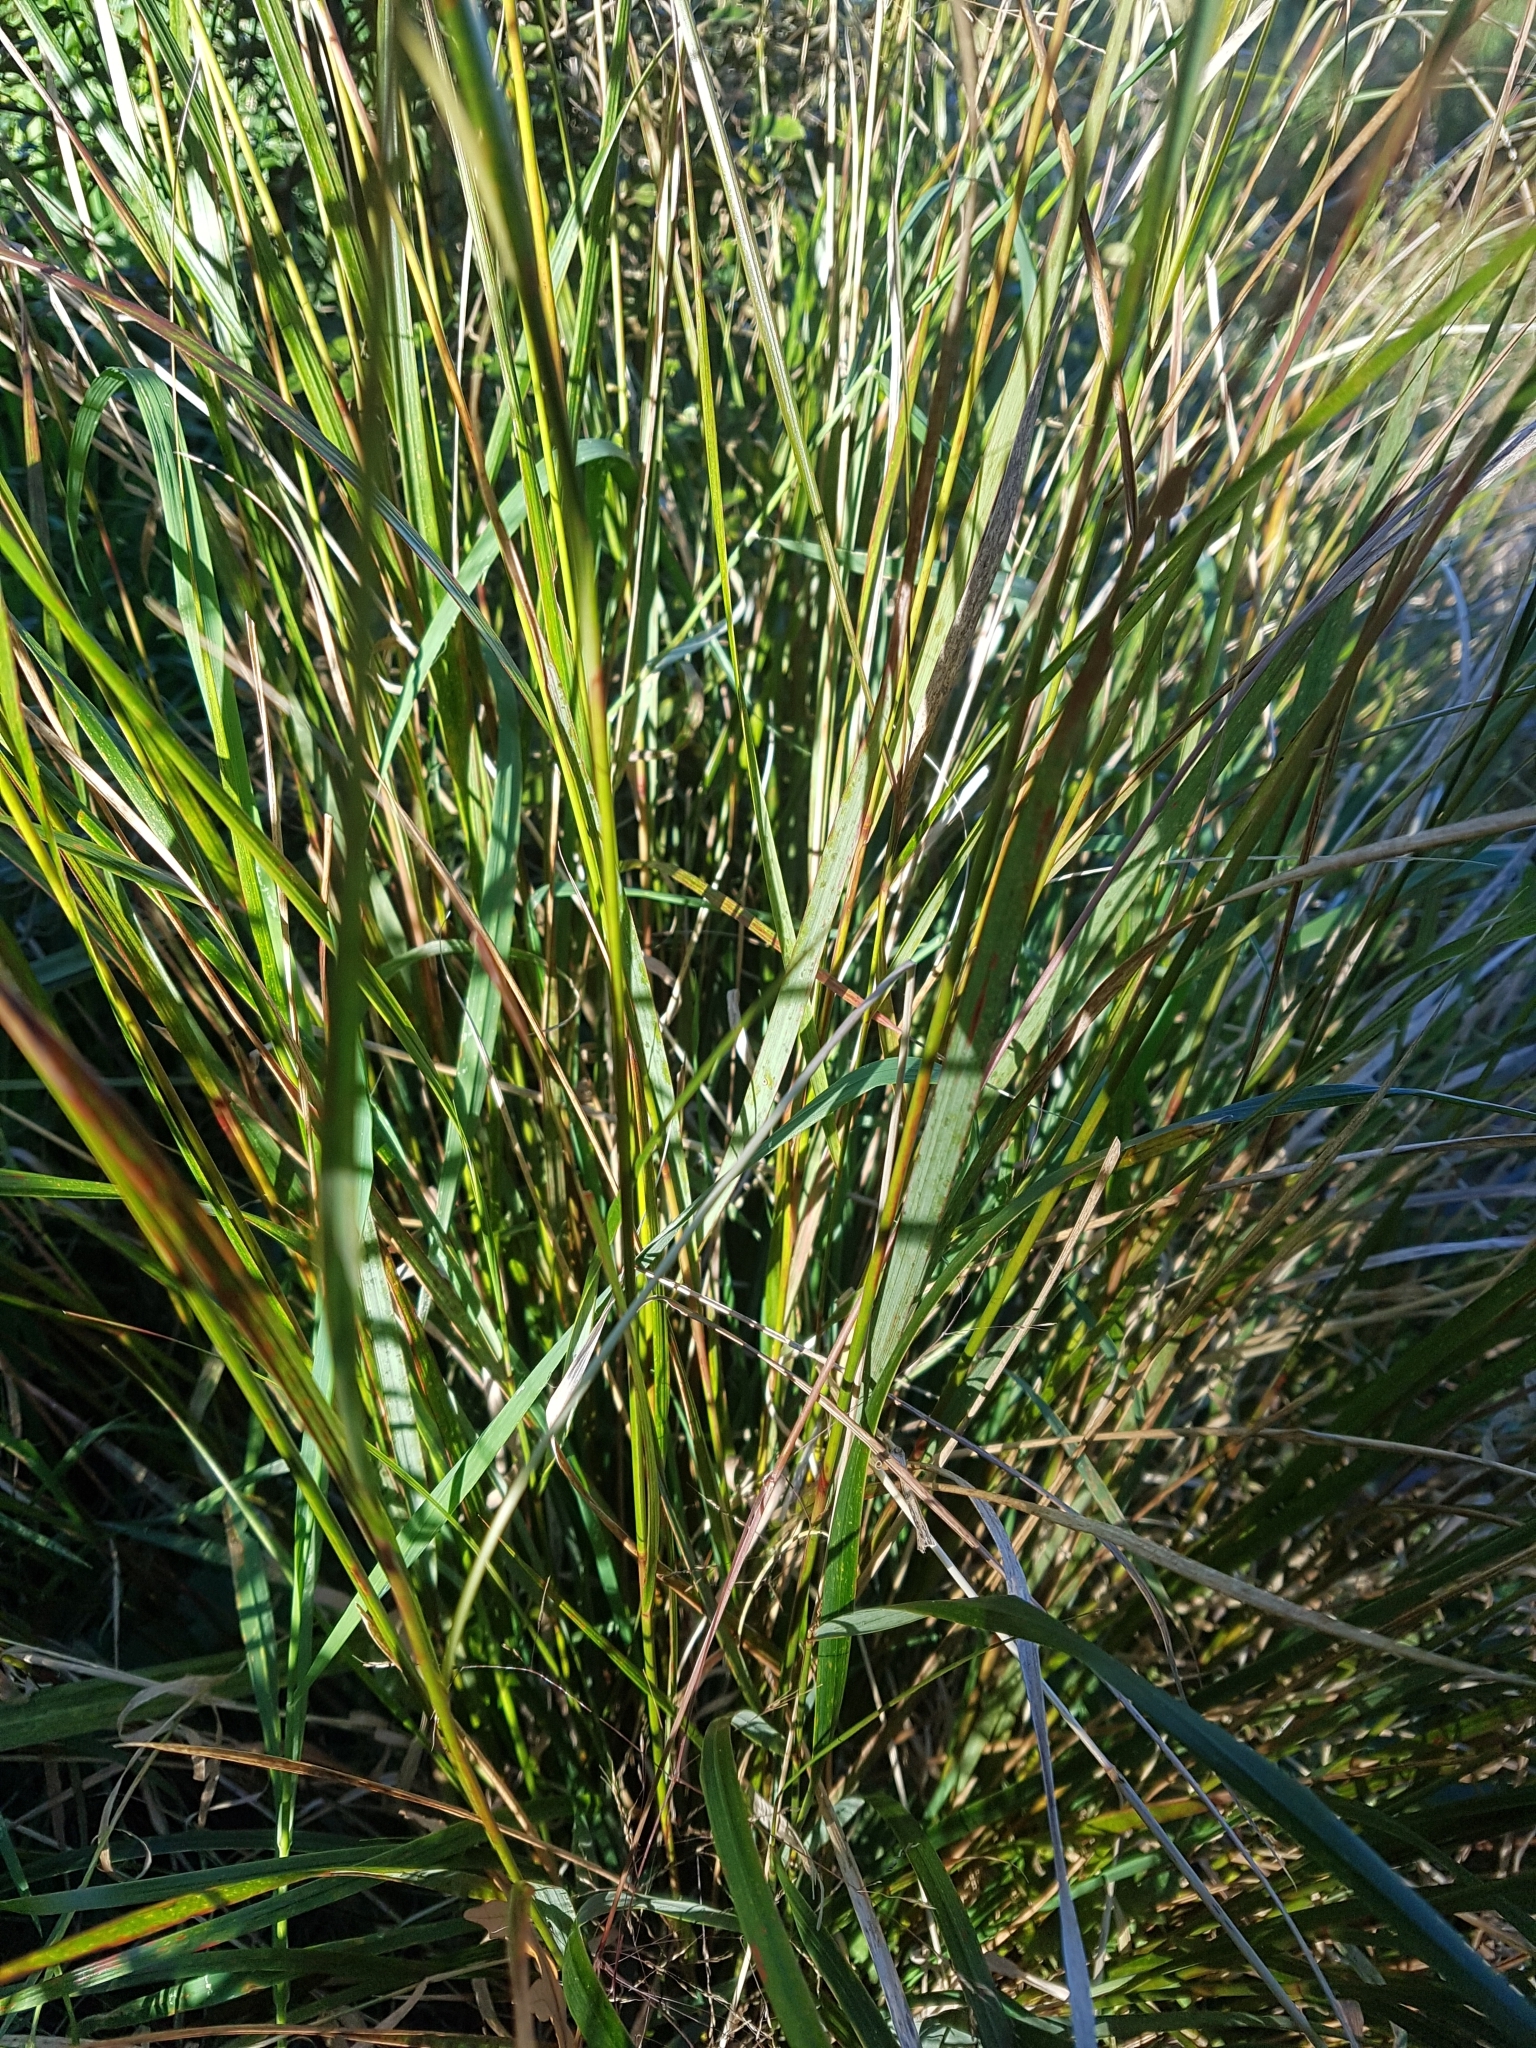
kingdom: Plantae
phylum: Tracheophyta
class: Liliopsida
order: Poales
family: Poaceae
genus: Anemanthele
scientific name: Anemanthele lessoniana
